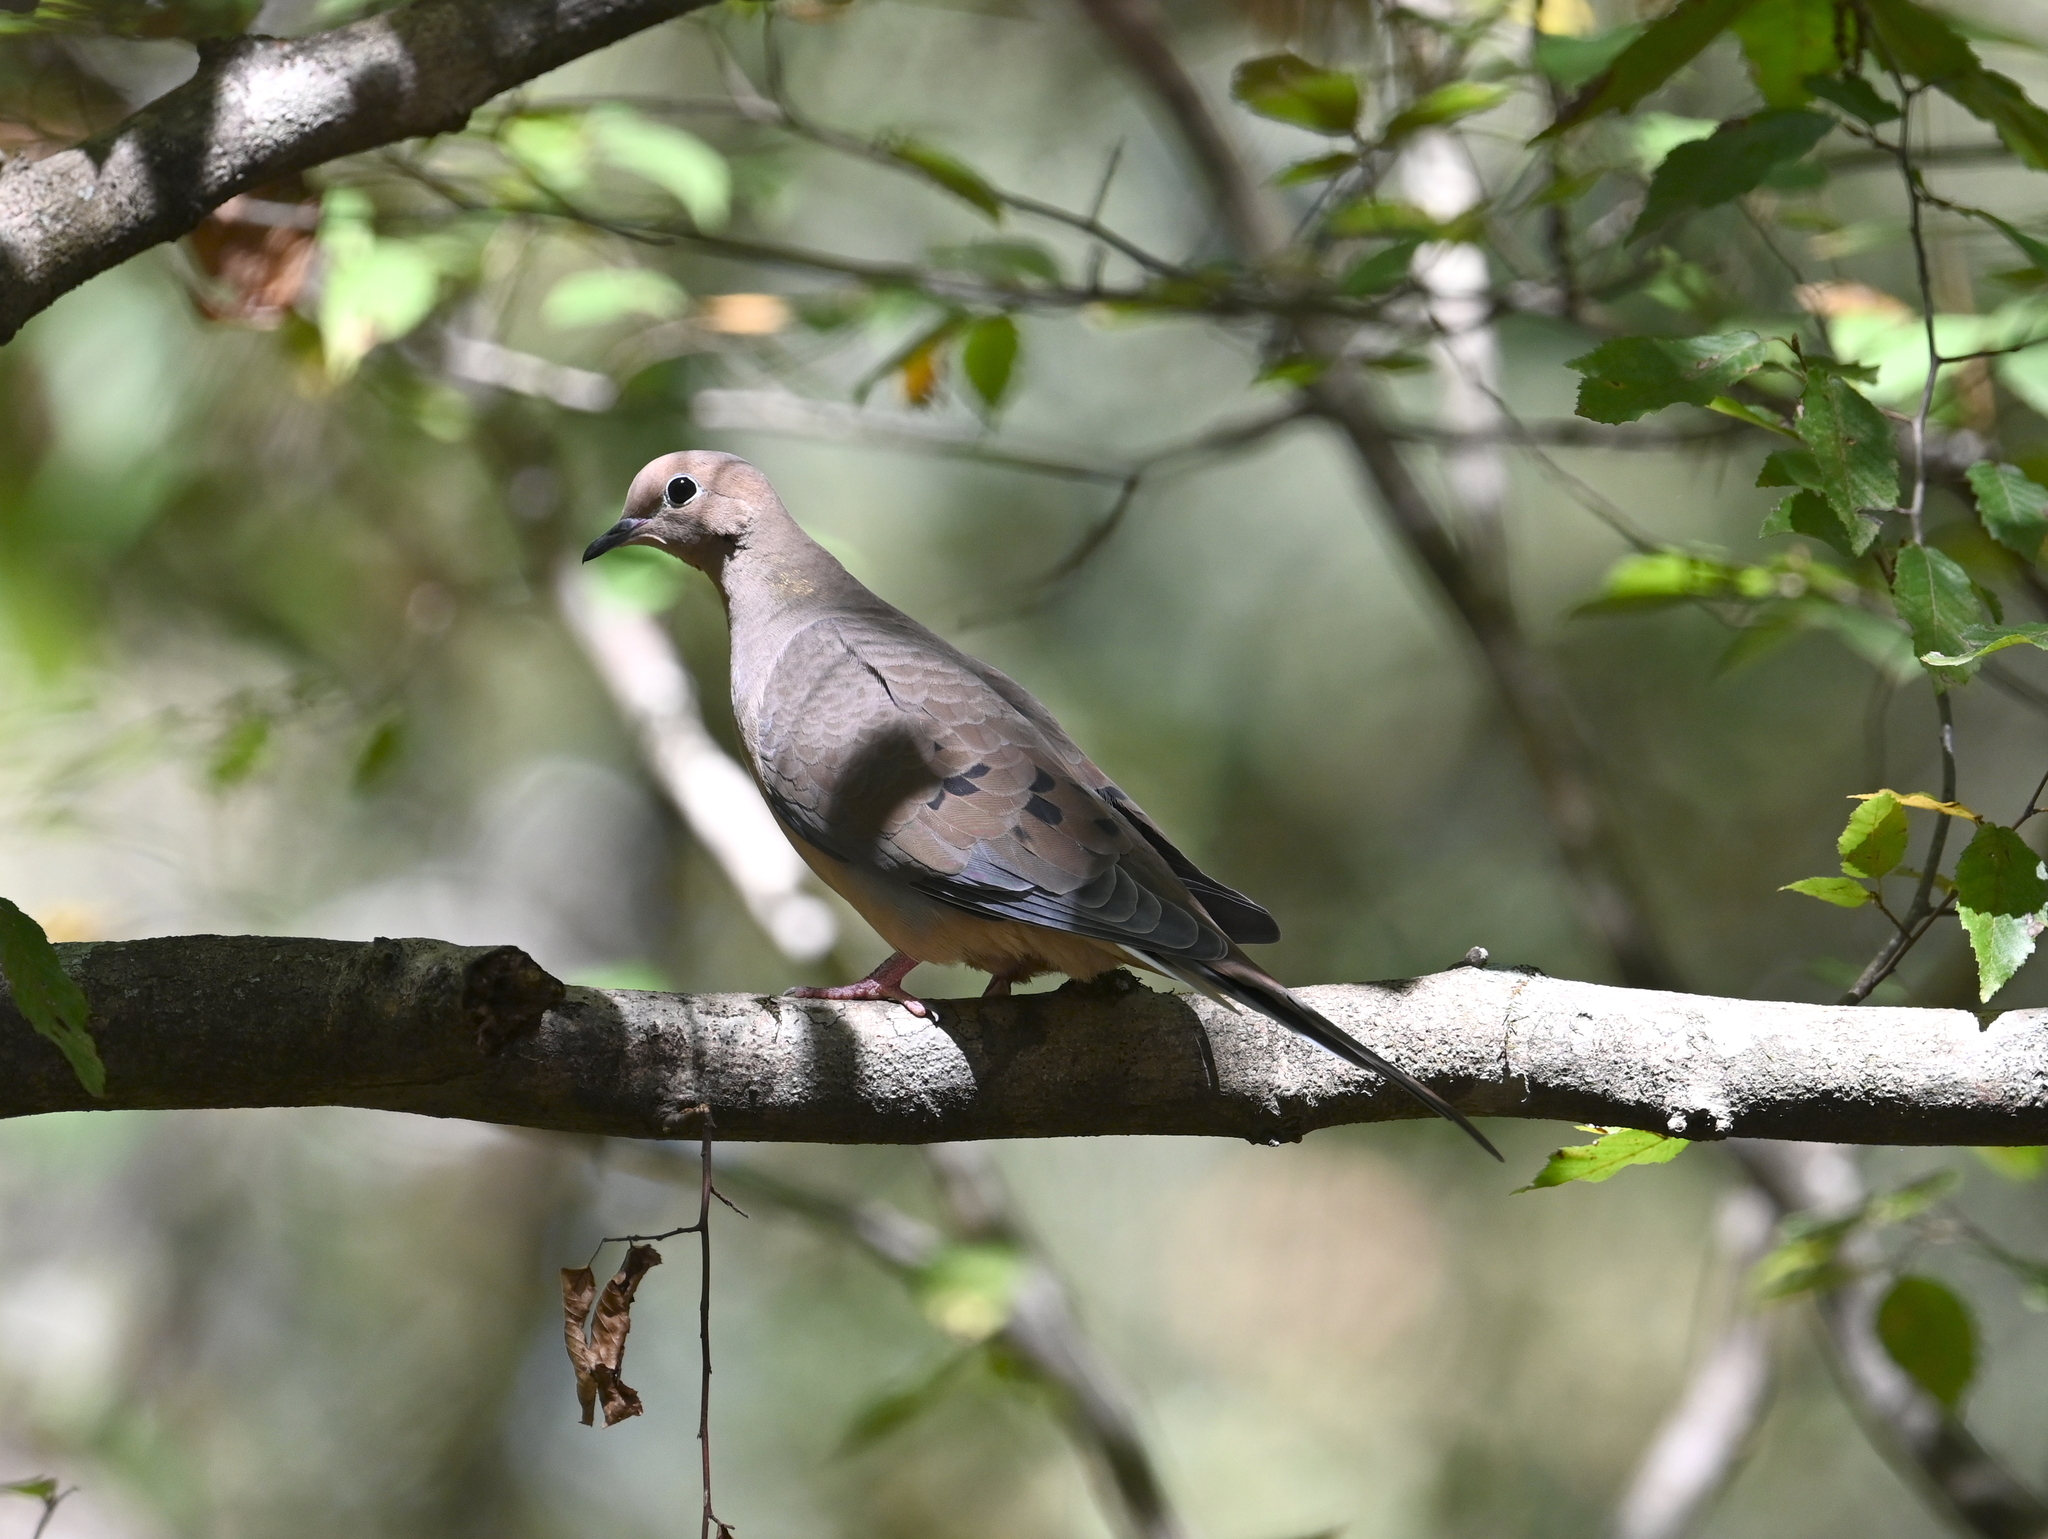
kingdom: Animalia
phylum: Chordata
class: Aves
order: Columbiformes
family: Columbidae
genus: Zenaida
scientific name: Zenaida macroura
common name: Mourning dove
